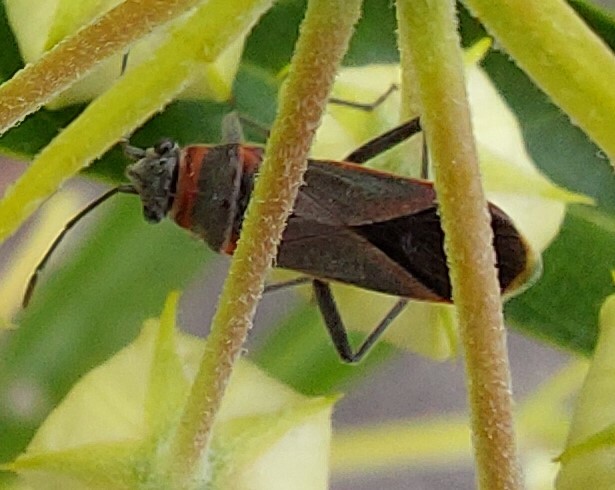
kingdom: Animalia
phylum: Arthropoda
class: Insecta
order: Hemiptera
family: Lygaeidae
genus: Arocatus
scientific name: Arocatus rusticus
